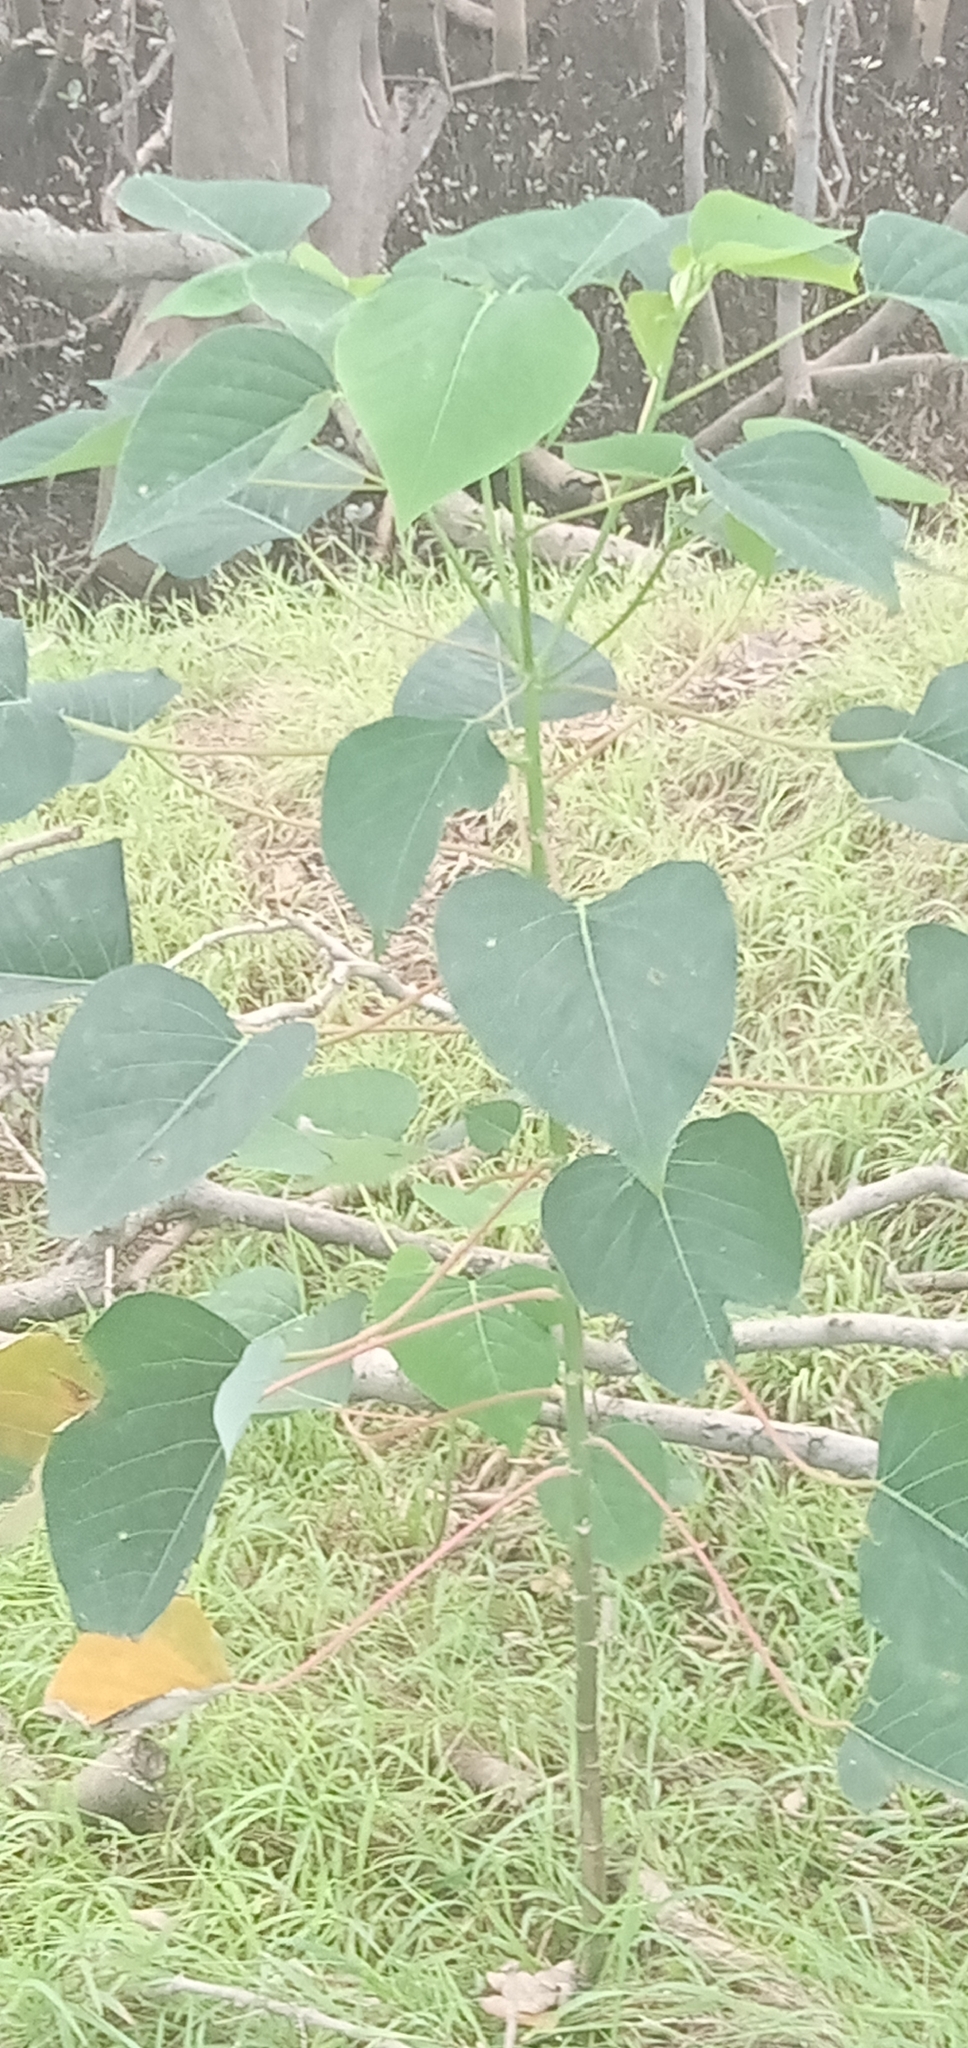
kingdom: Plantae
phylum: Tracheophyta
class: Magnoliopsida
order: Malpighiales
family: Euphorbiaceae
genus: Homalanthus
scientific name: Homalanthus populifolius
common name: Queensland poplar
